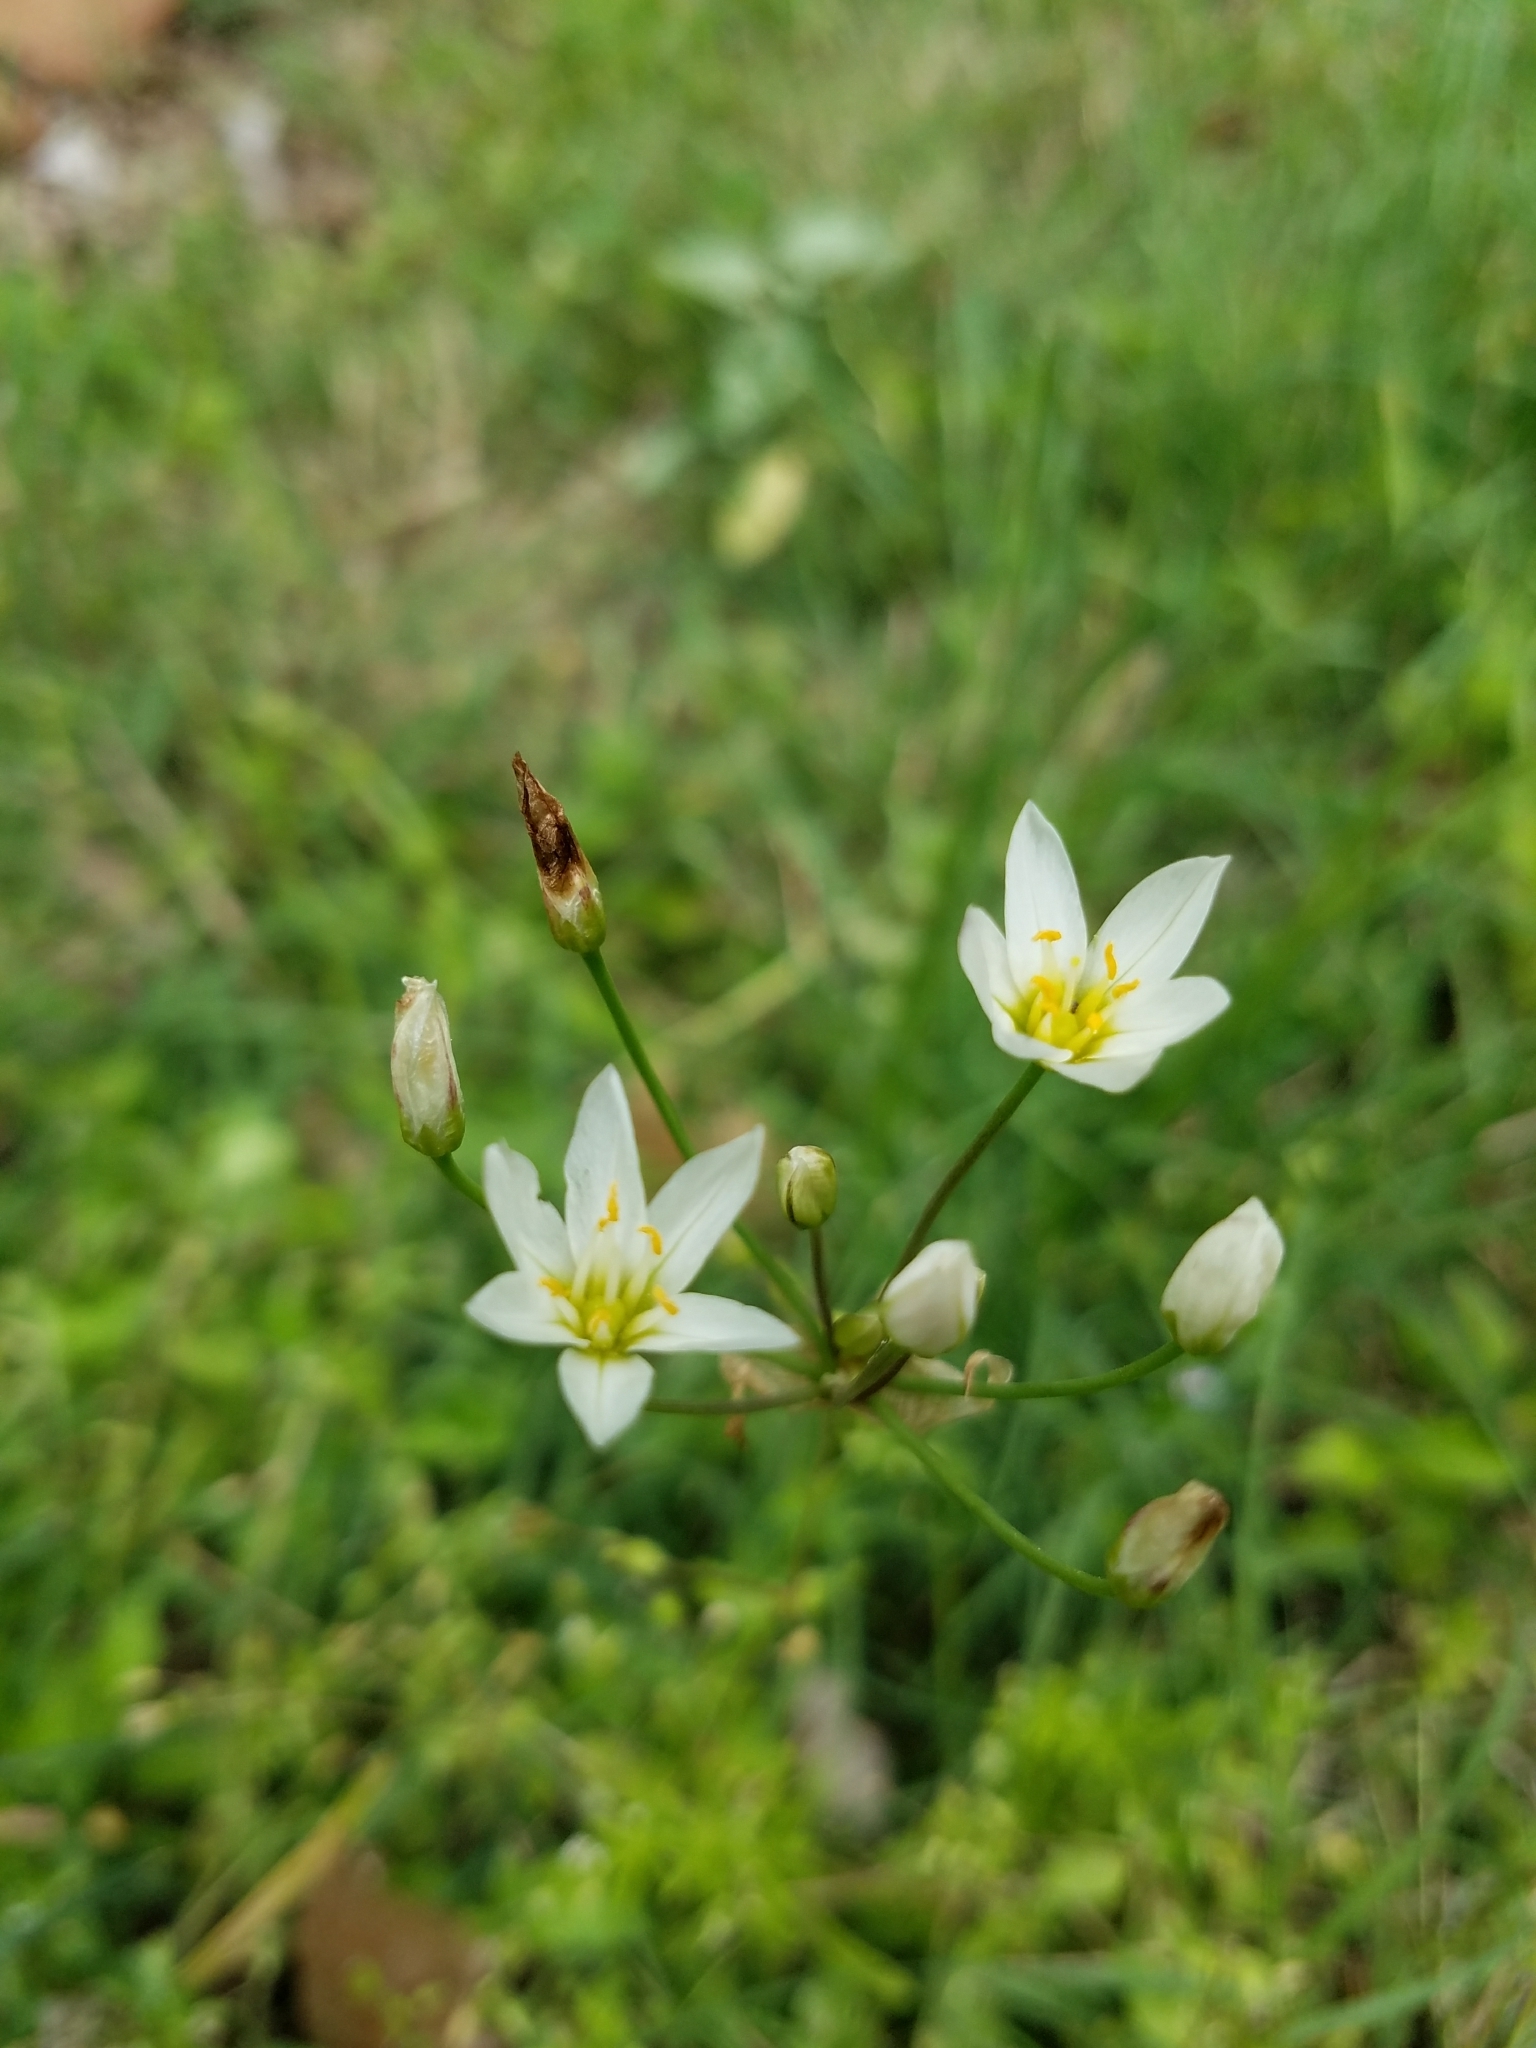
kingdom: Plantae
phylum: Tracheophyta
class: Liliopsida
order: Asparagales
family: Amaryllidaceae
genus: Nothoscordum
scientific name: Nothoscordum bivalve
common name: Crow-poison
